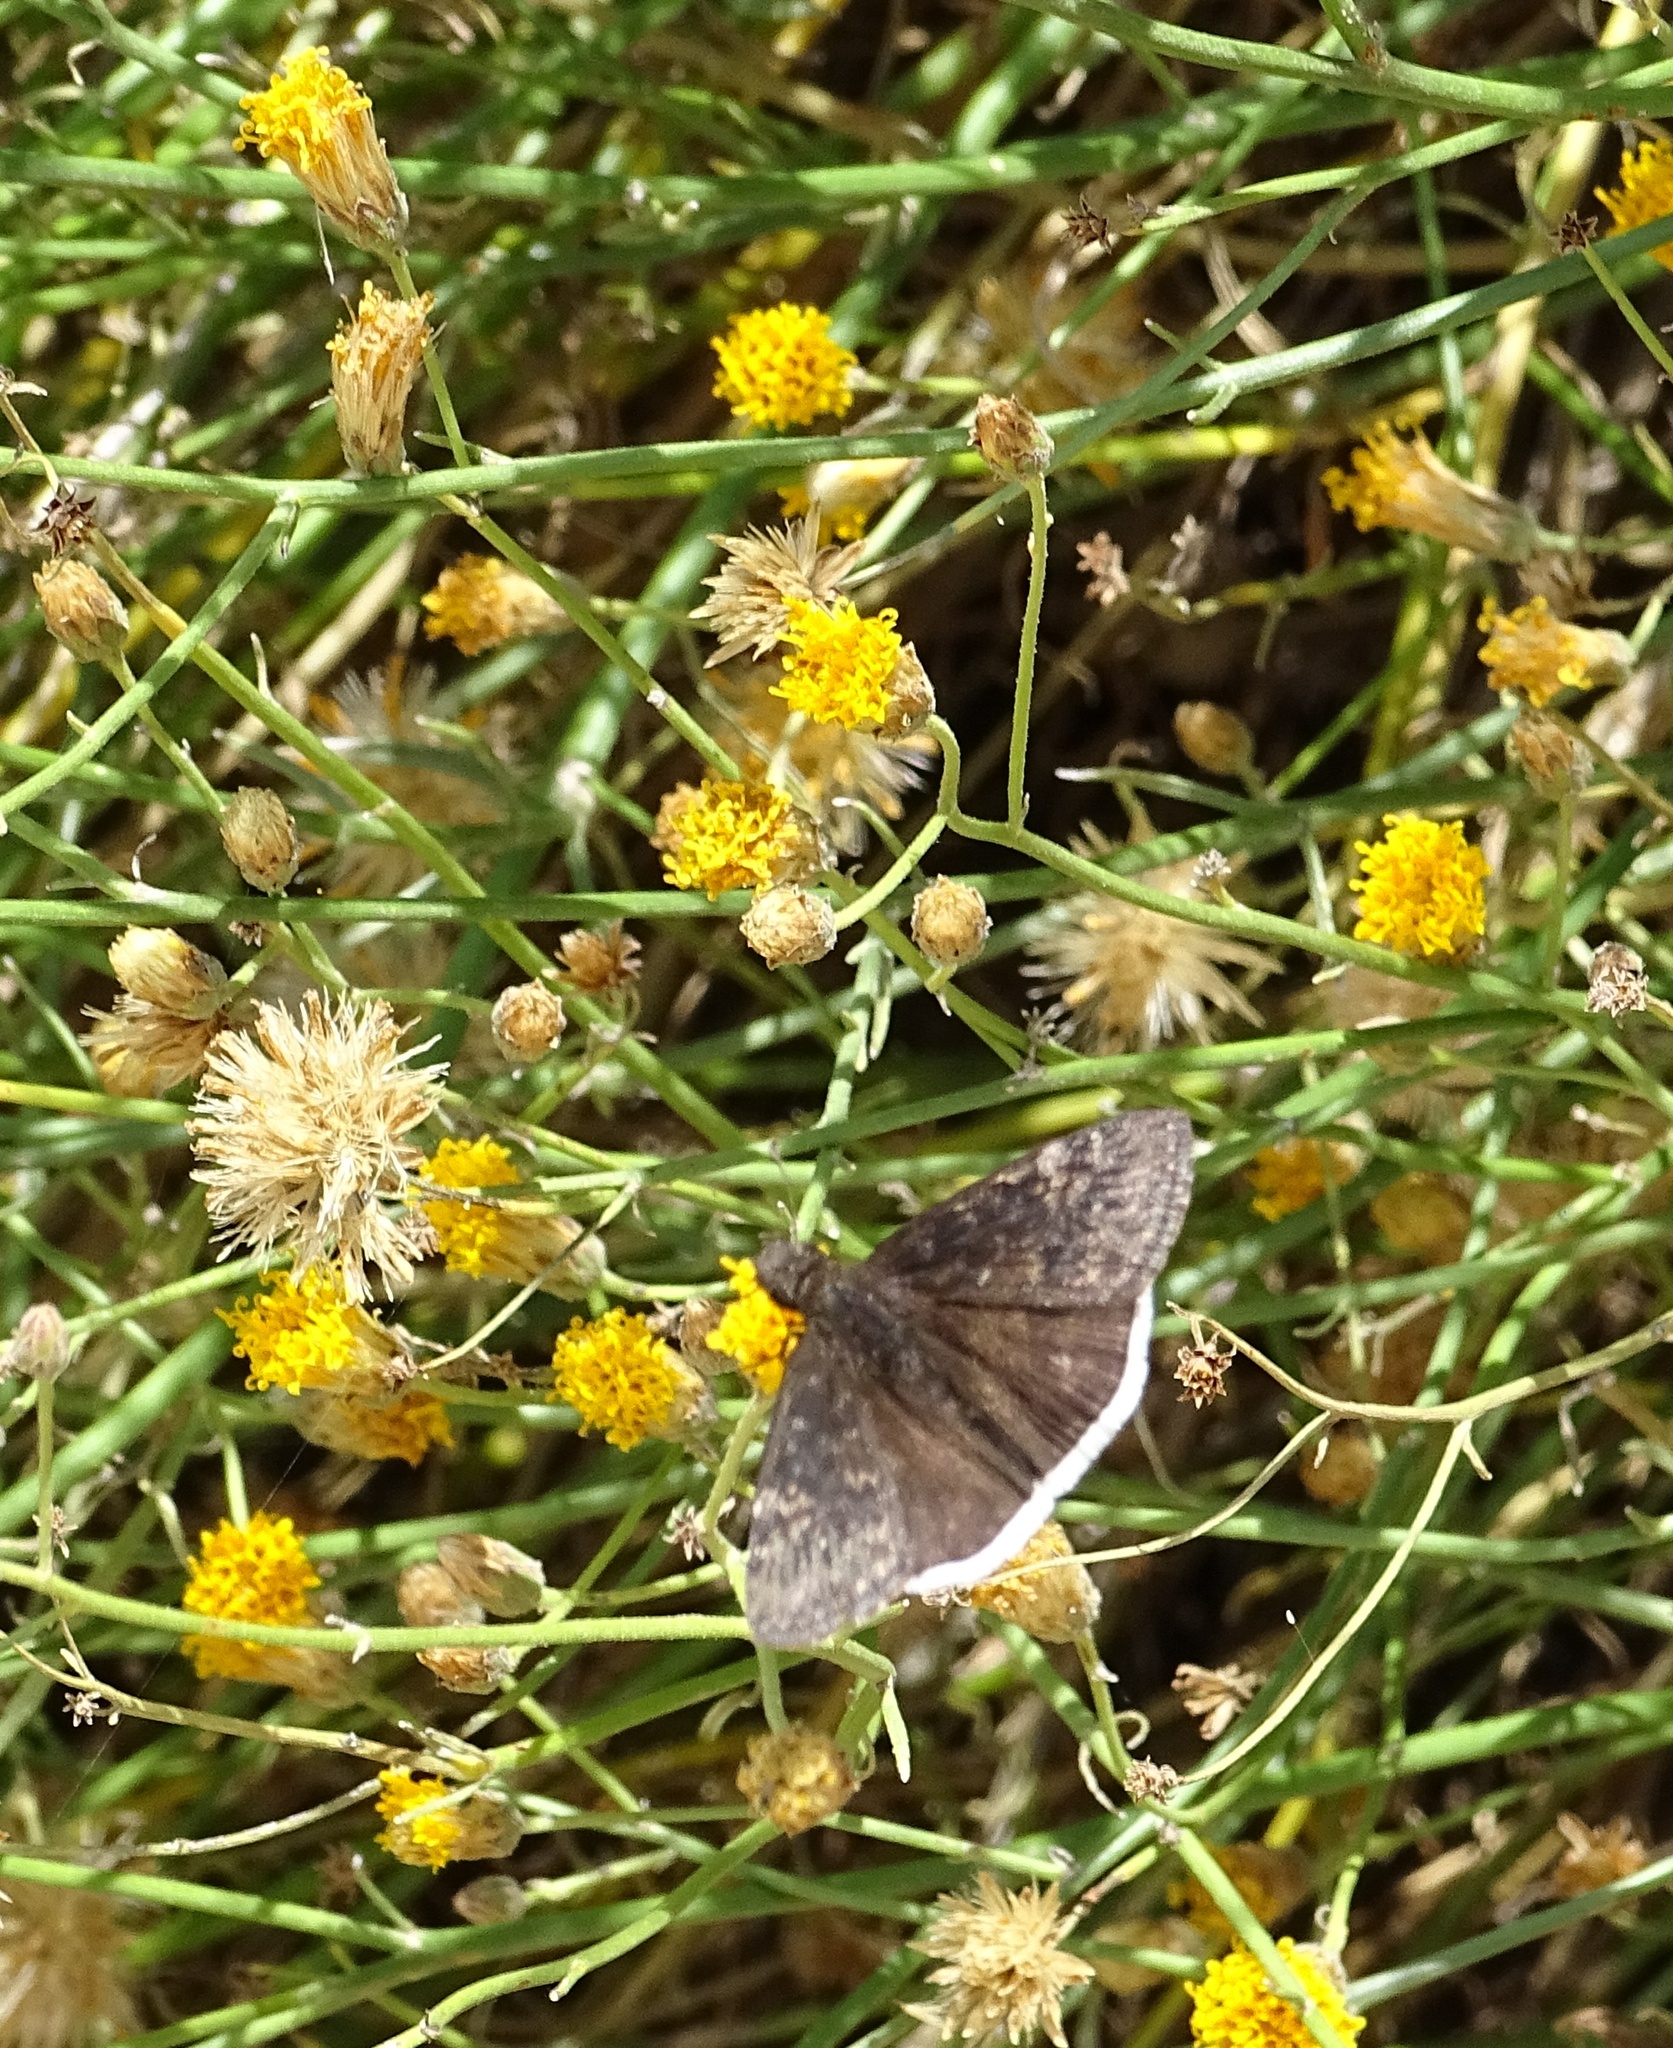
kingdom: Animalia
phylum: Arthropoda
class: Insecta
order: Lepidoptera
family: Hesperiidae
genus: Erynnis
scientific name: Erynnis funeralis
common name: Funereal duskywing
